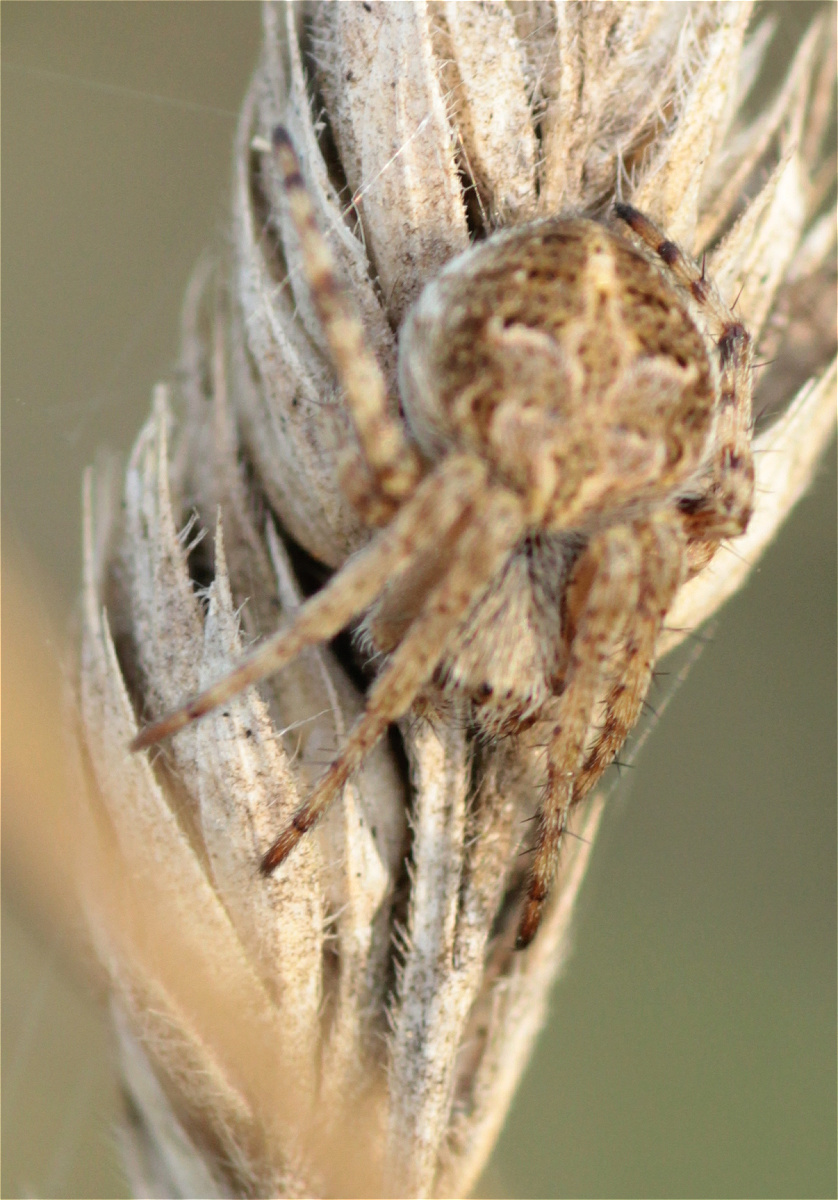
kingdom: Animalia
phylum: Arthropoda
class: Arachnida
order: Araneae
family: Araneidae
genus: Agalenatea
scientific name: Agalenatea redii
